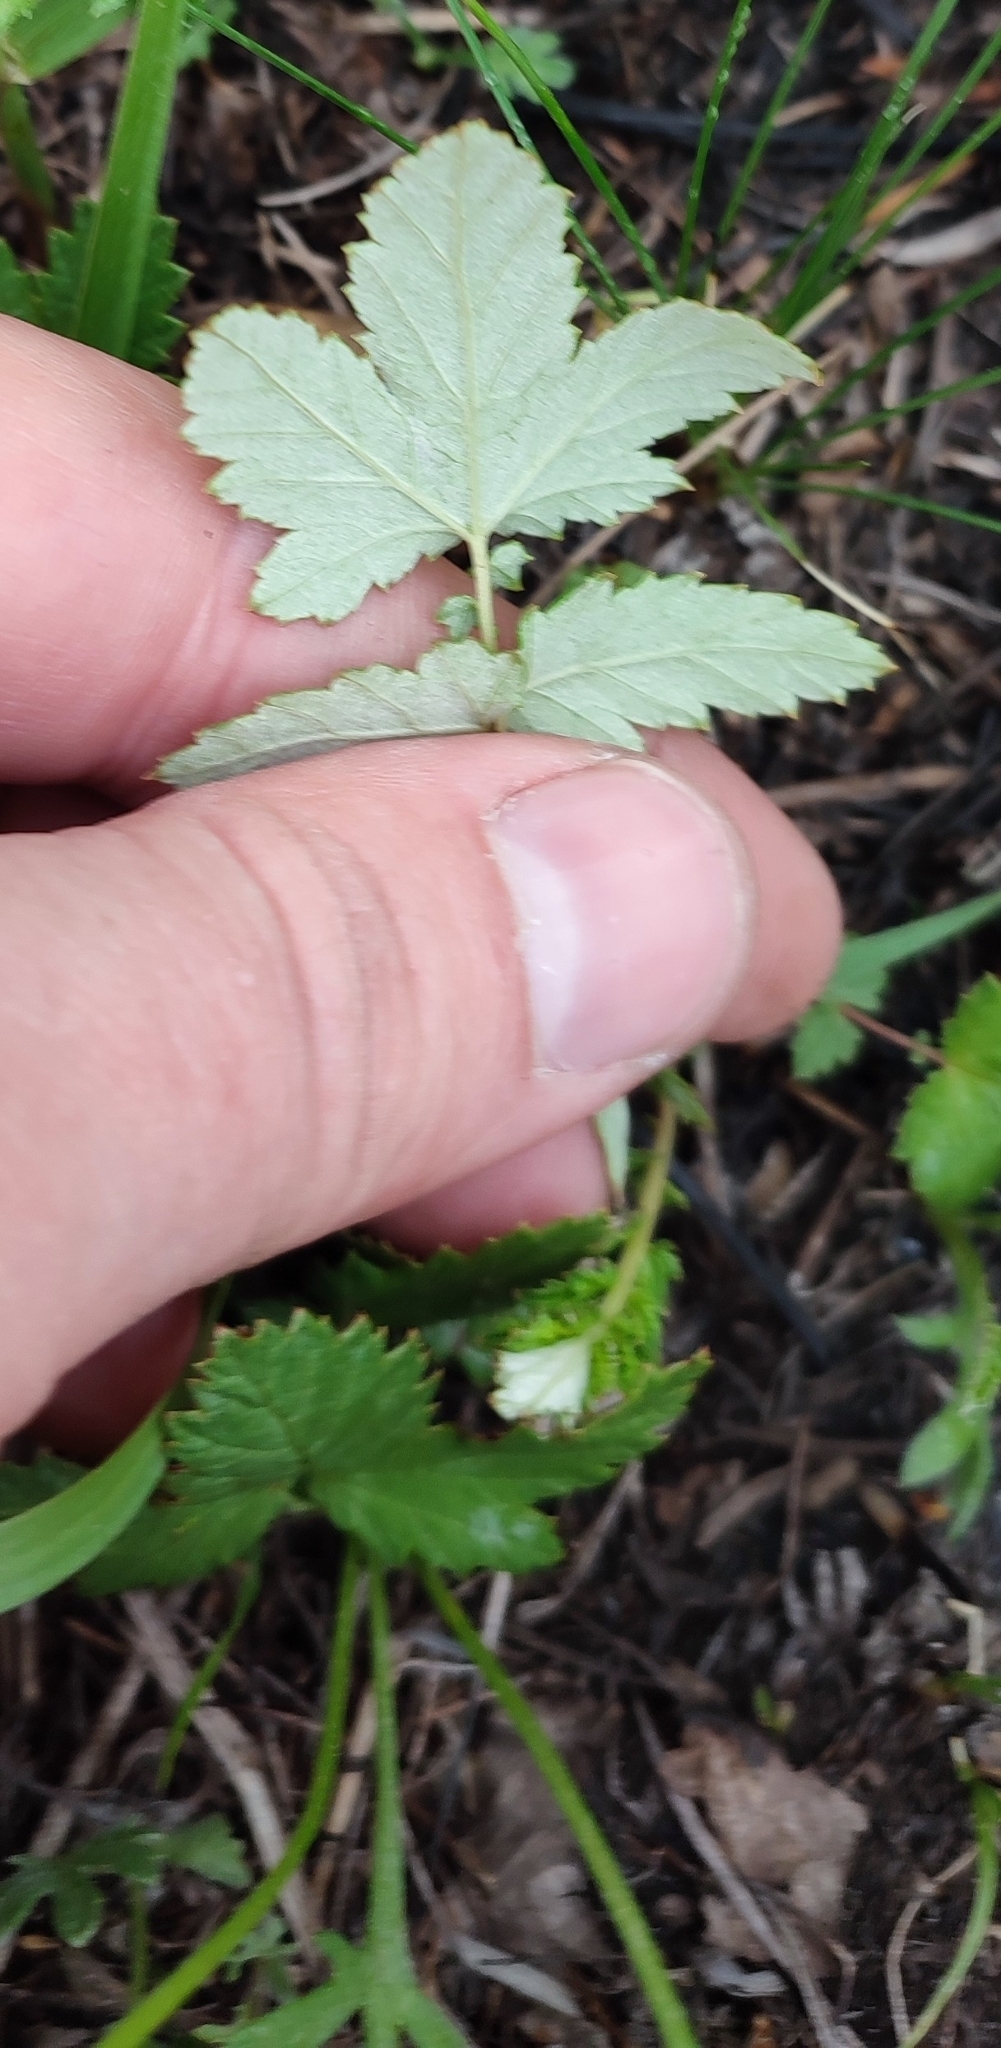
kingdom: Plantae
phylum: Tracheophyta
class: Magnoliopsida
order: Rosales
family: Rosaceae
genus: Filipendula
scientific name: Filipendula ulmaria
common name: Meadowsweet
